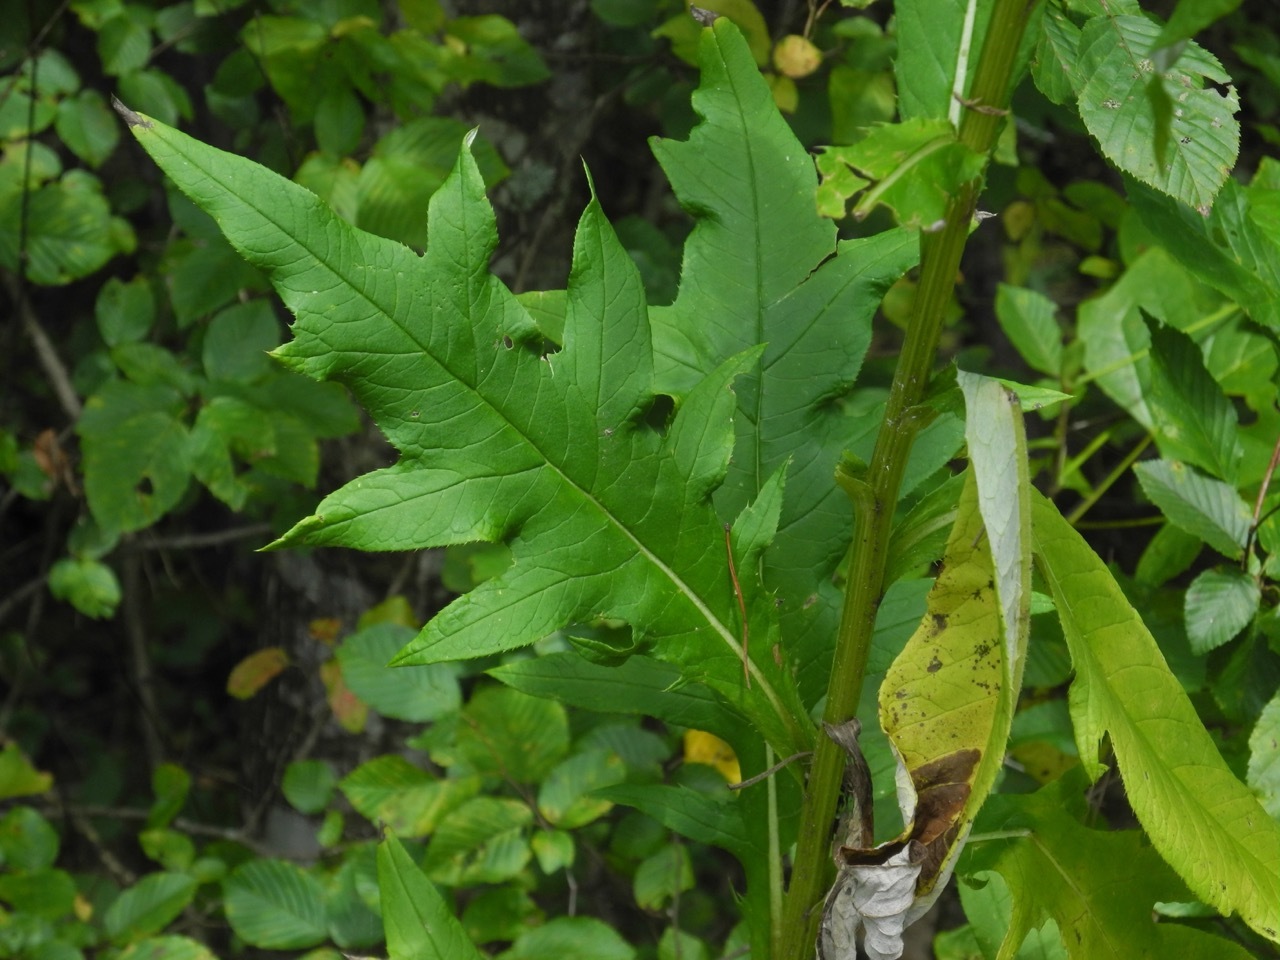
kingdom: Plantae
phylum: Tracheophyta
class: Magnoliopsida
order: Asterales
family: Asteraceae
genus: Cirsium
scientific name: Cirsium altissimum
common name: Roadside thistle
